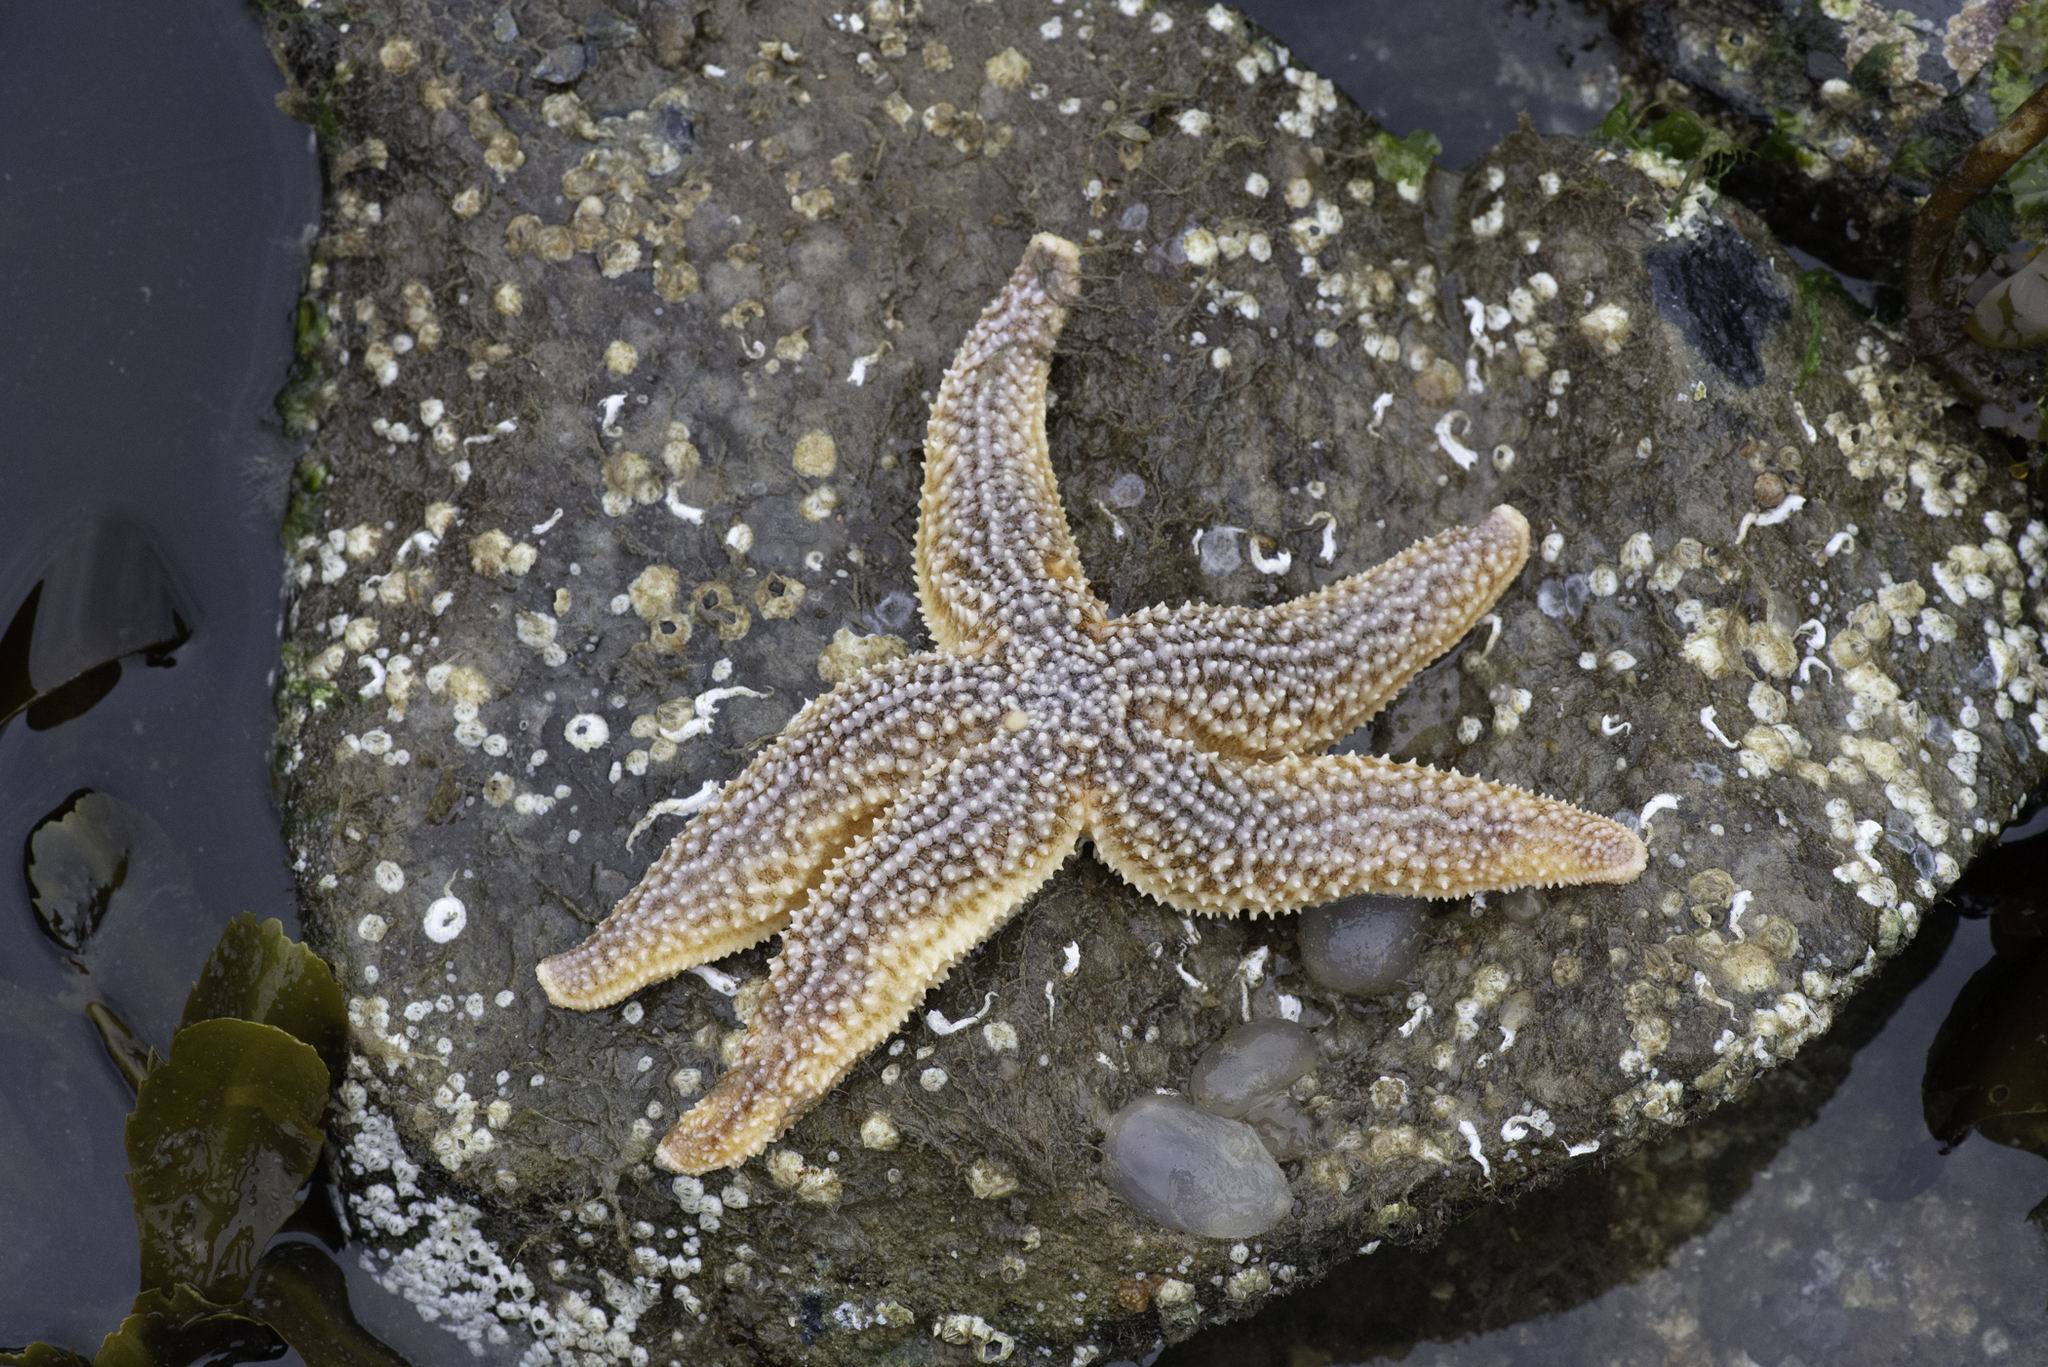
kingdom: Animalia
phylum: Echinodermata
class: Asteroidea
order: Forcipulatida
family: Asteriidae
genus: Asterias
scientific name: Asterias rubens
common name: Common starfish
